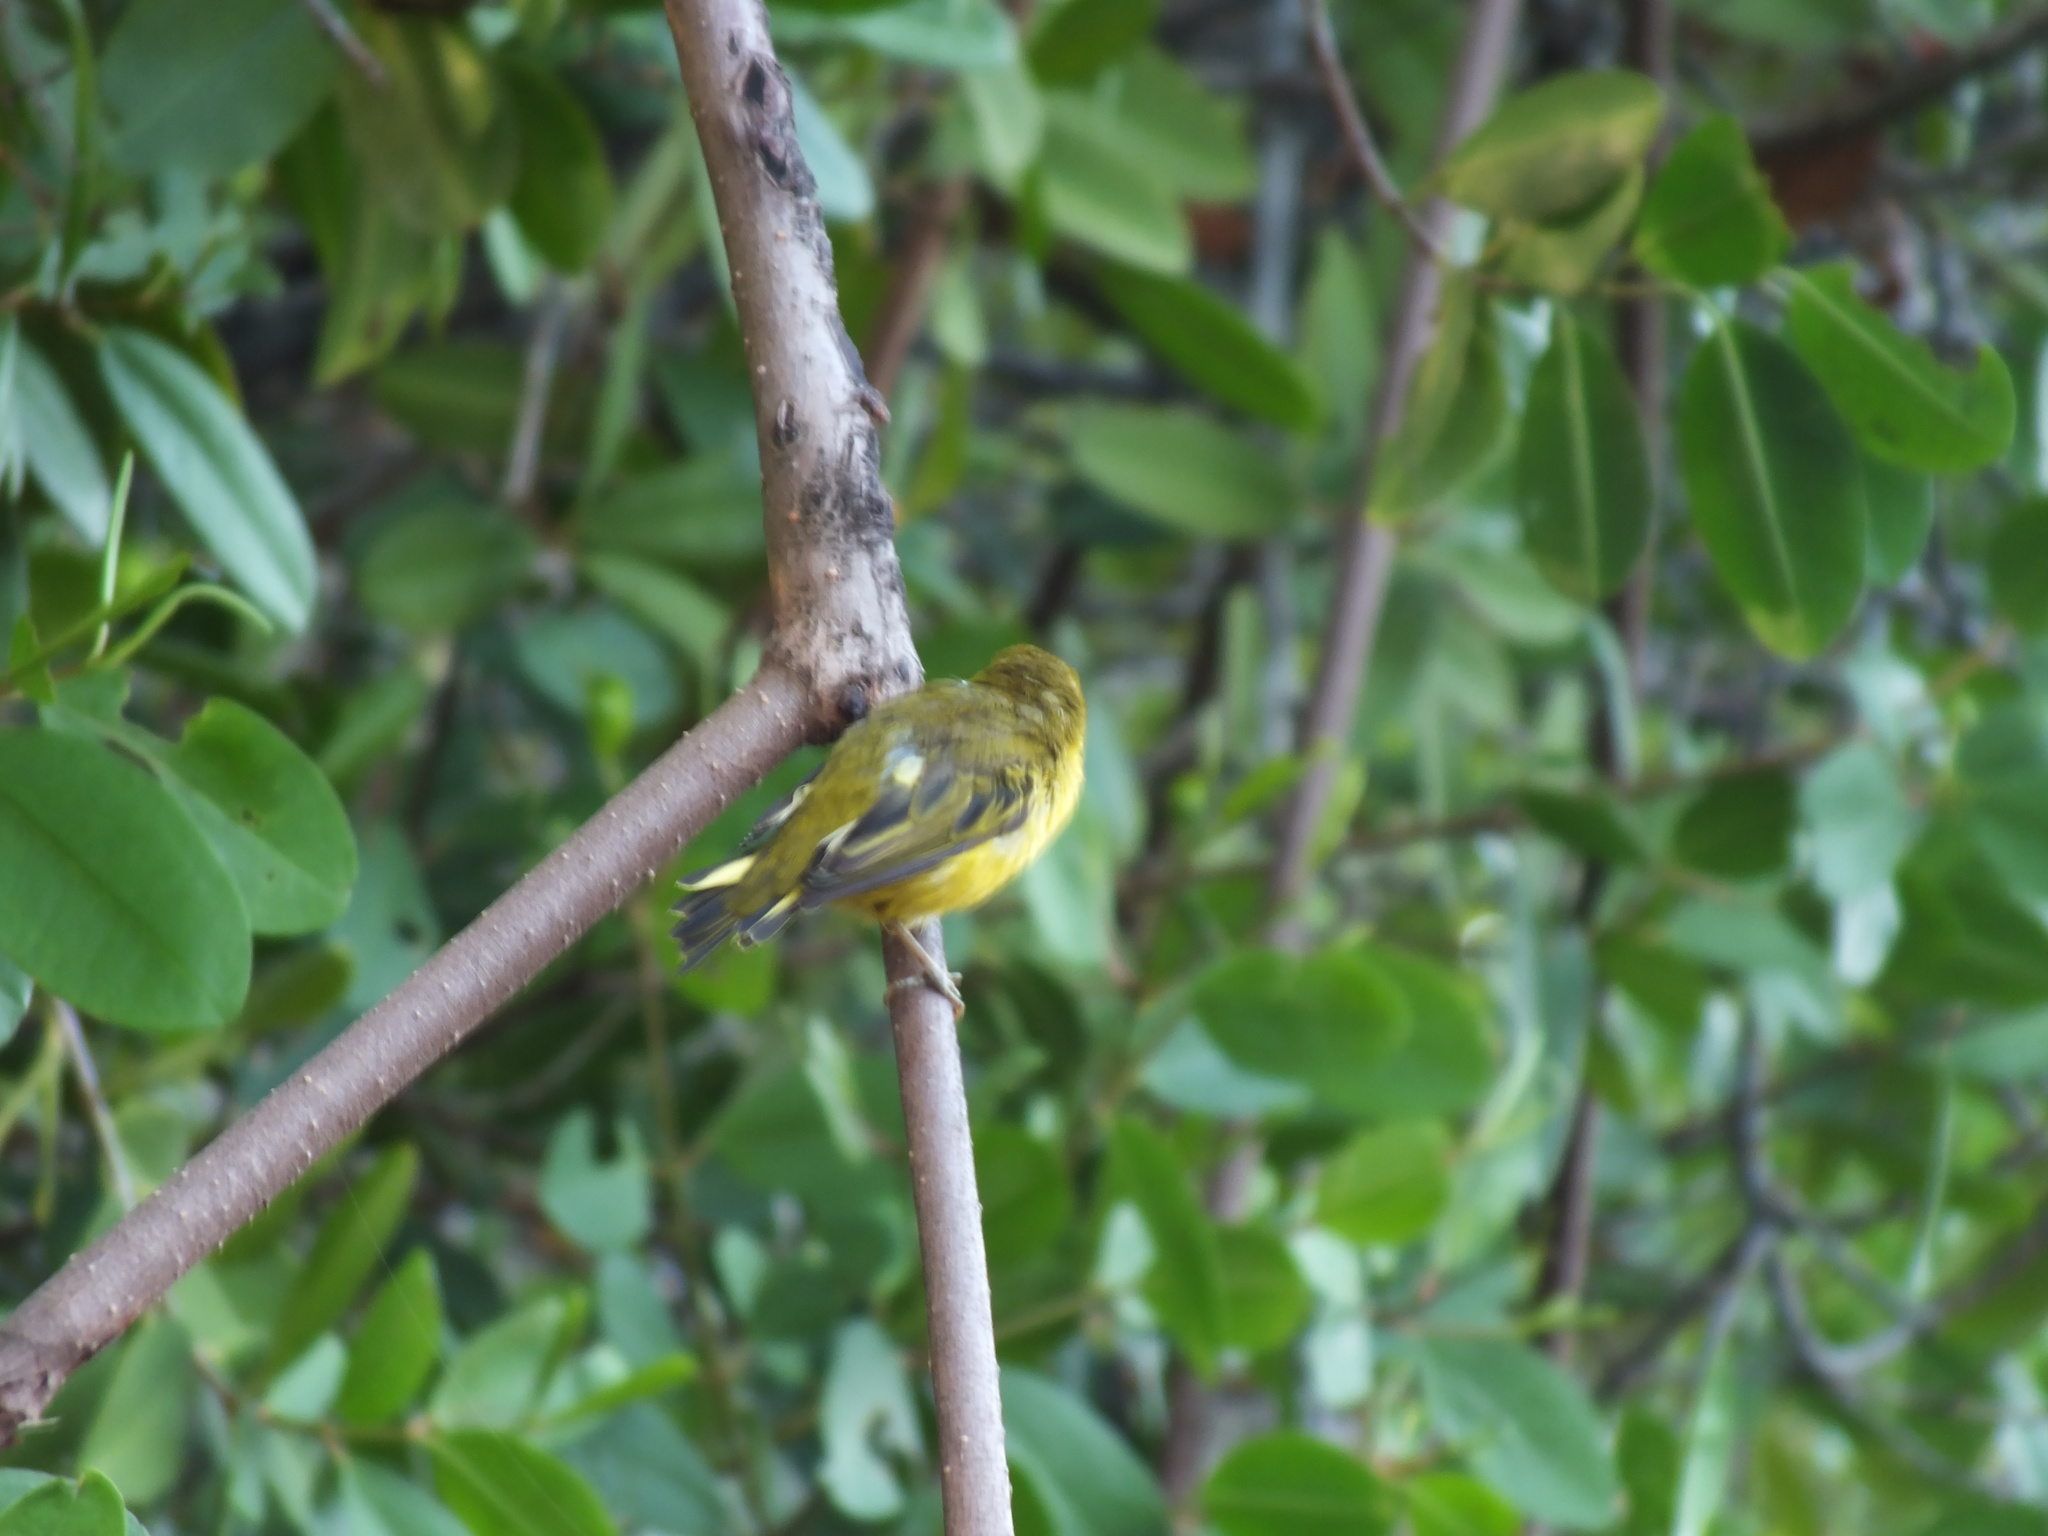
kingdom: Animalia
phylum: Chordata
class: Aves
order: Passeriformes
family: Parulidae
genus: Setophaga
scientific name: Setophaga petechia
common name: Yellow warbler
